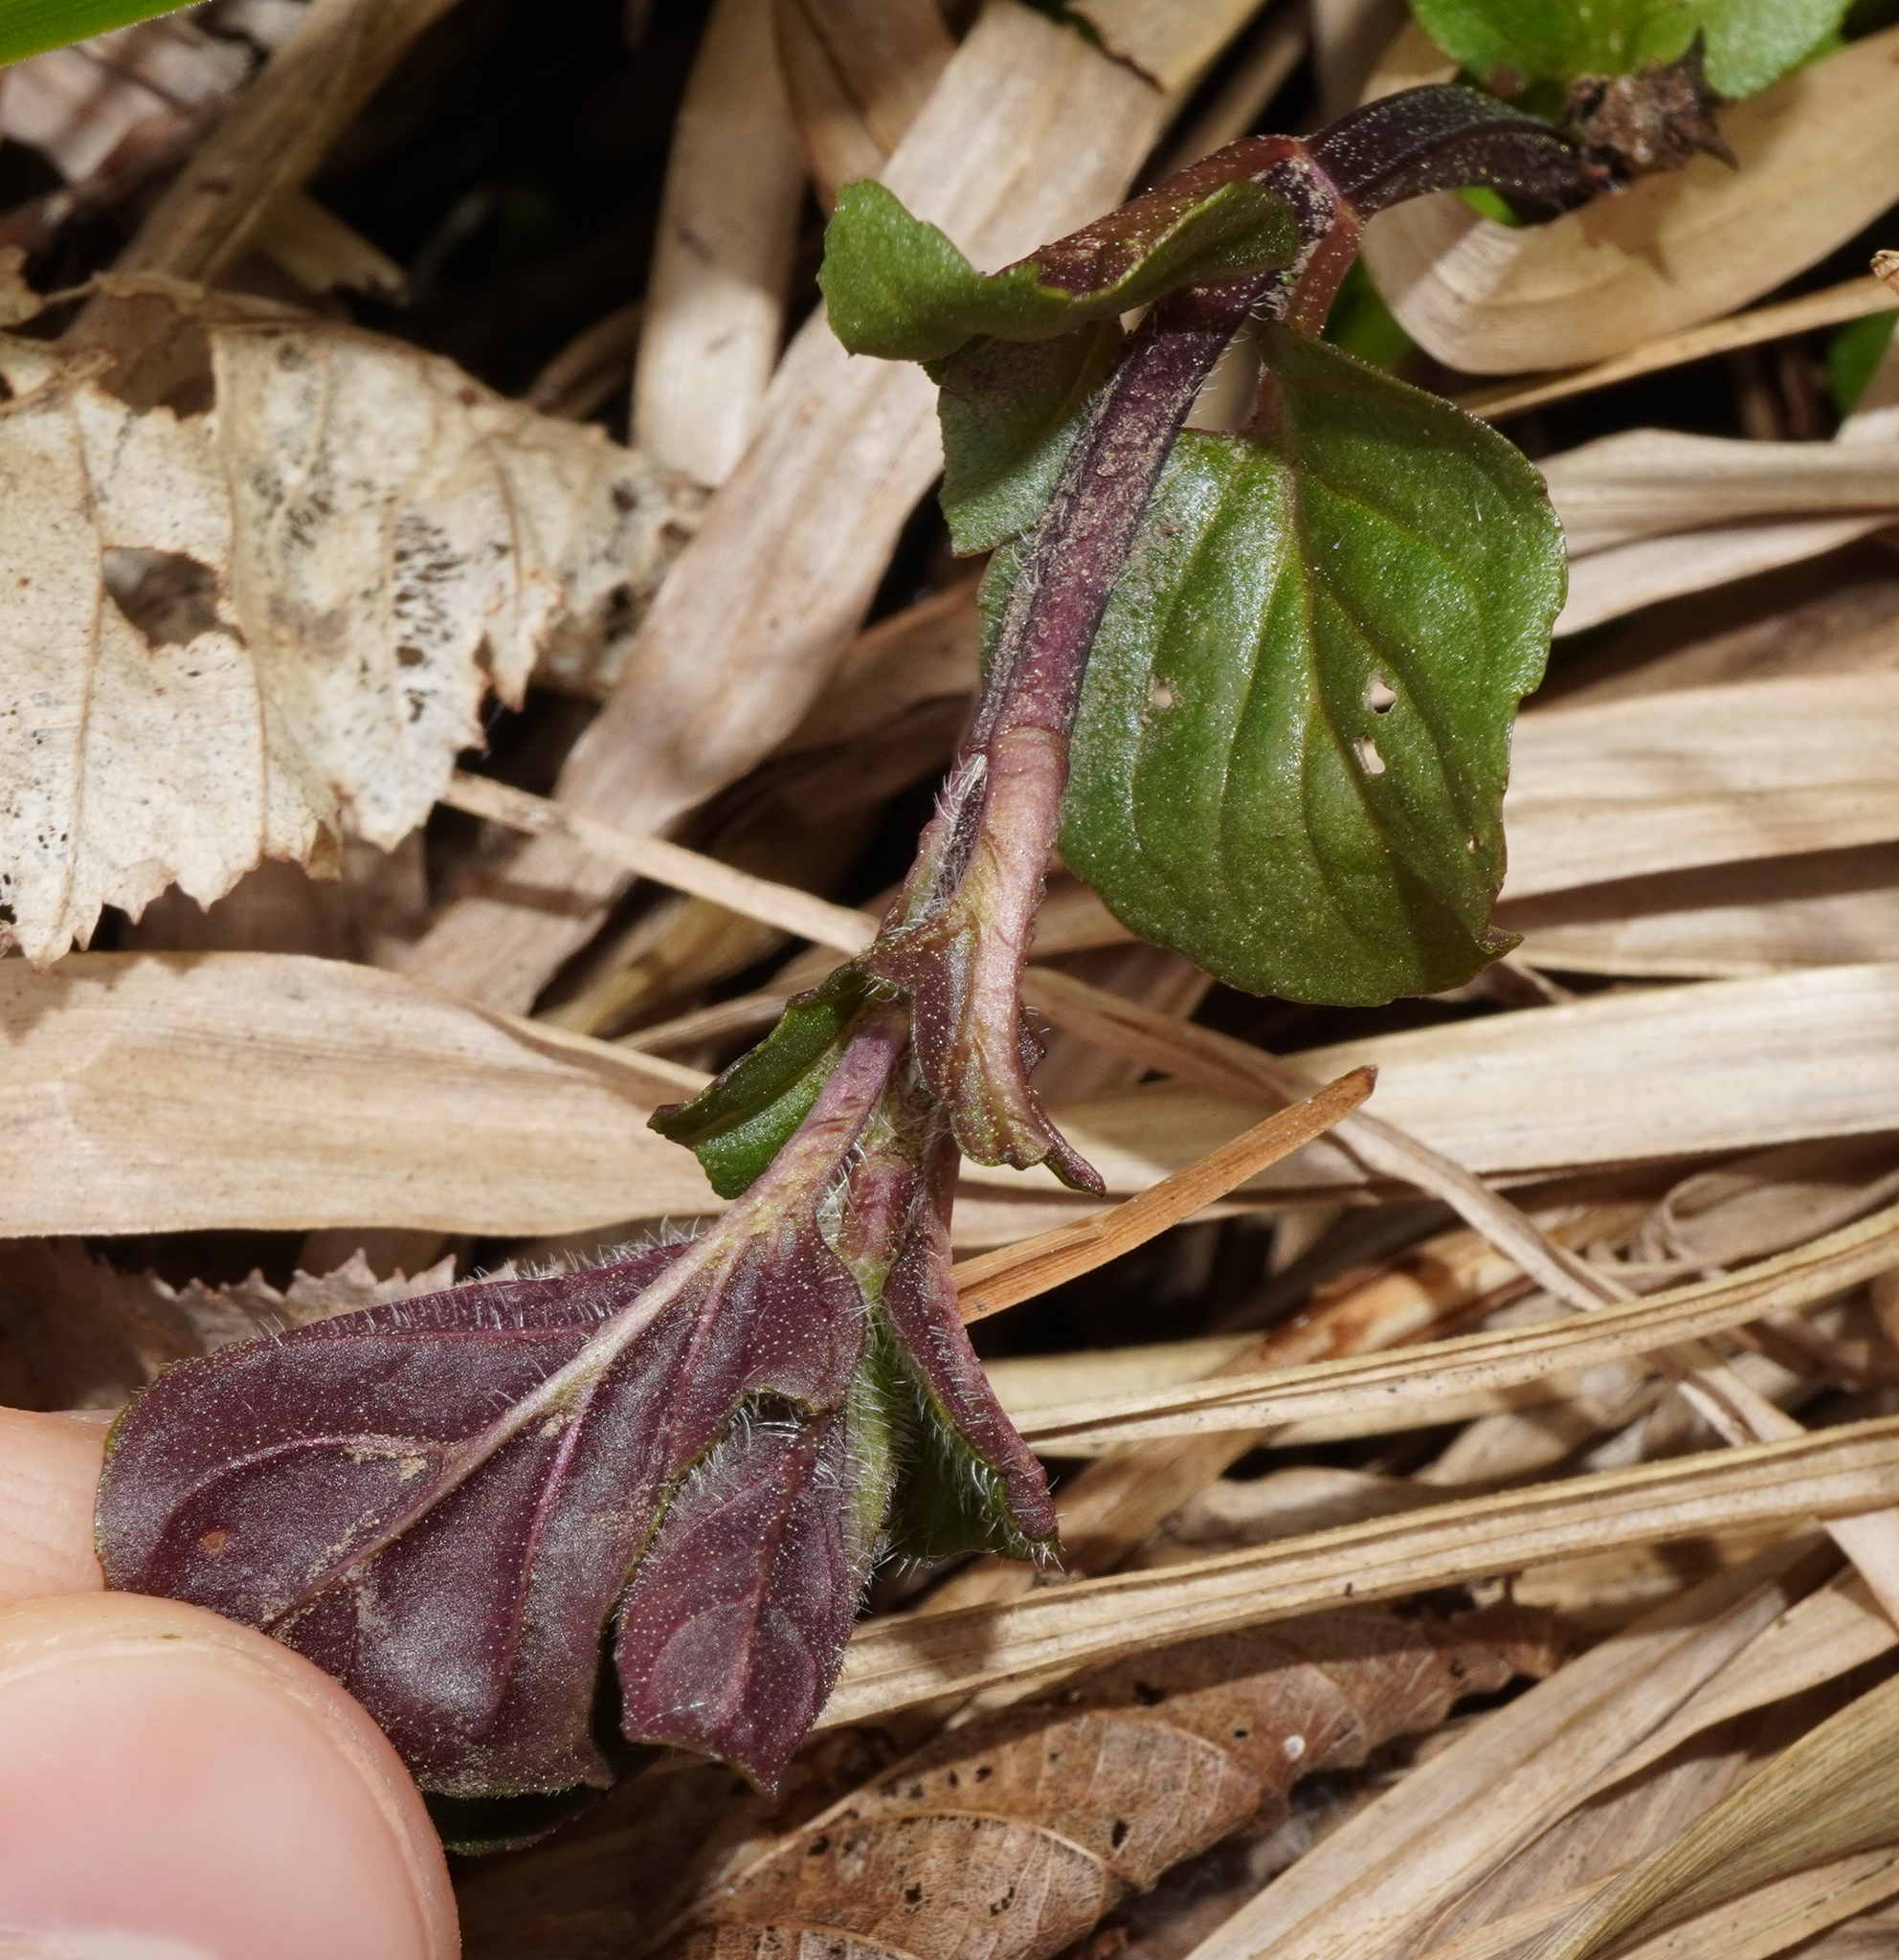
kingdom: Plantae
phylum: Tracheophyta
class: Magnoliopsida
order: Lamiales
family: Lamiaceae
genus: Mentha
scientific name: Mentha aquatica
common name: Water mint
